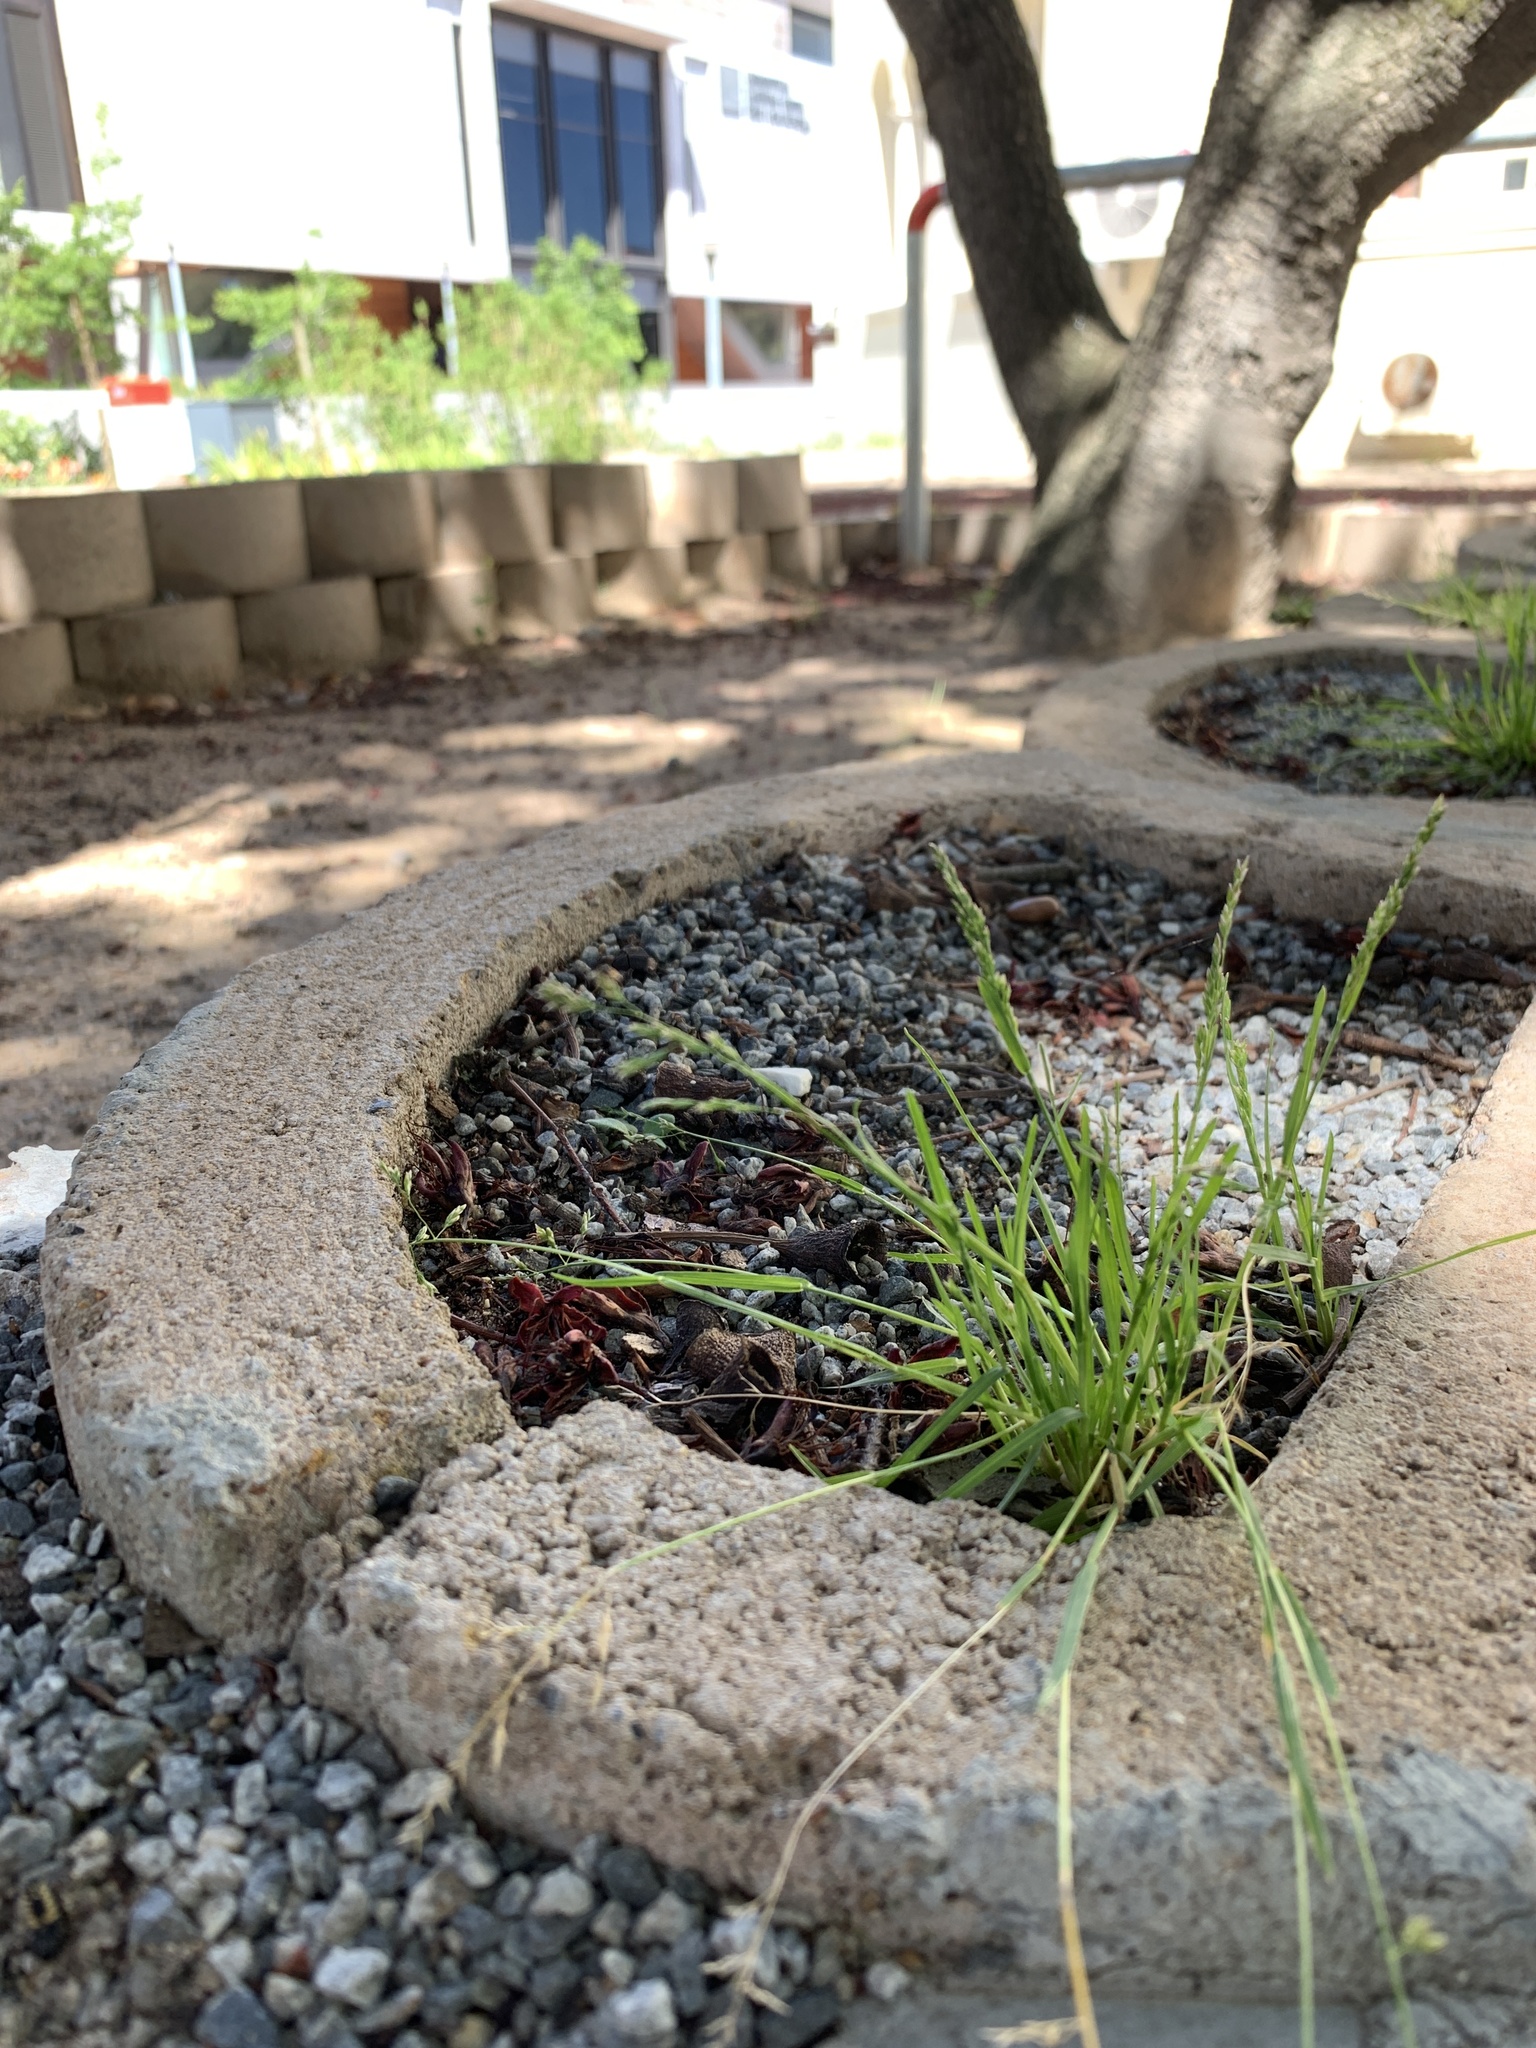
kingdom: Plantae
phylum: Tracheophyta
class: Liliopsida
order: Poales
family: Poaceae
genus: Poa
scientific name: Poa annua
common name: Annual bluegrass
